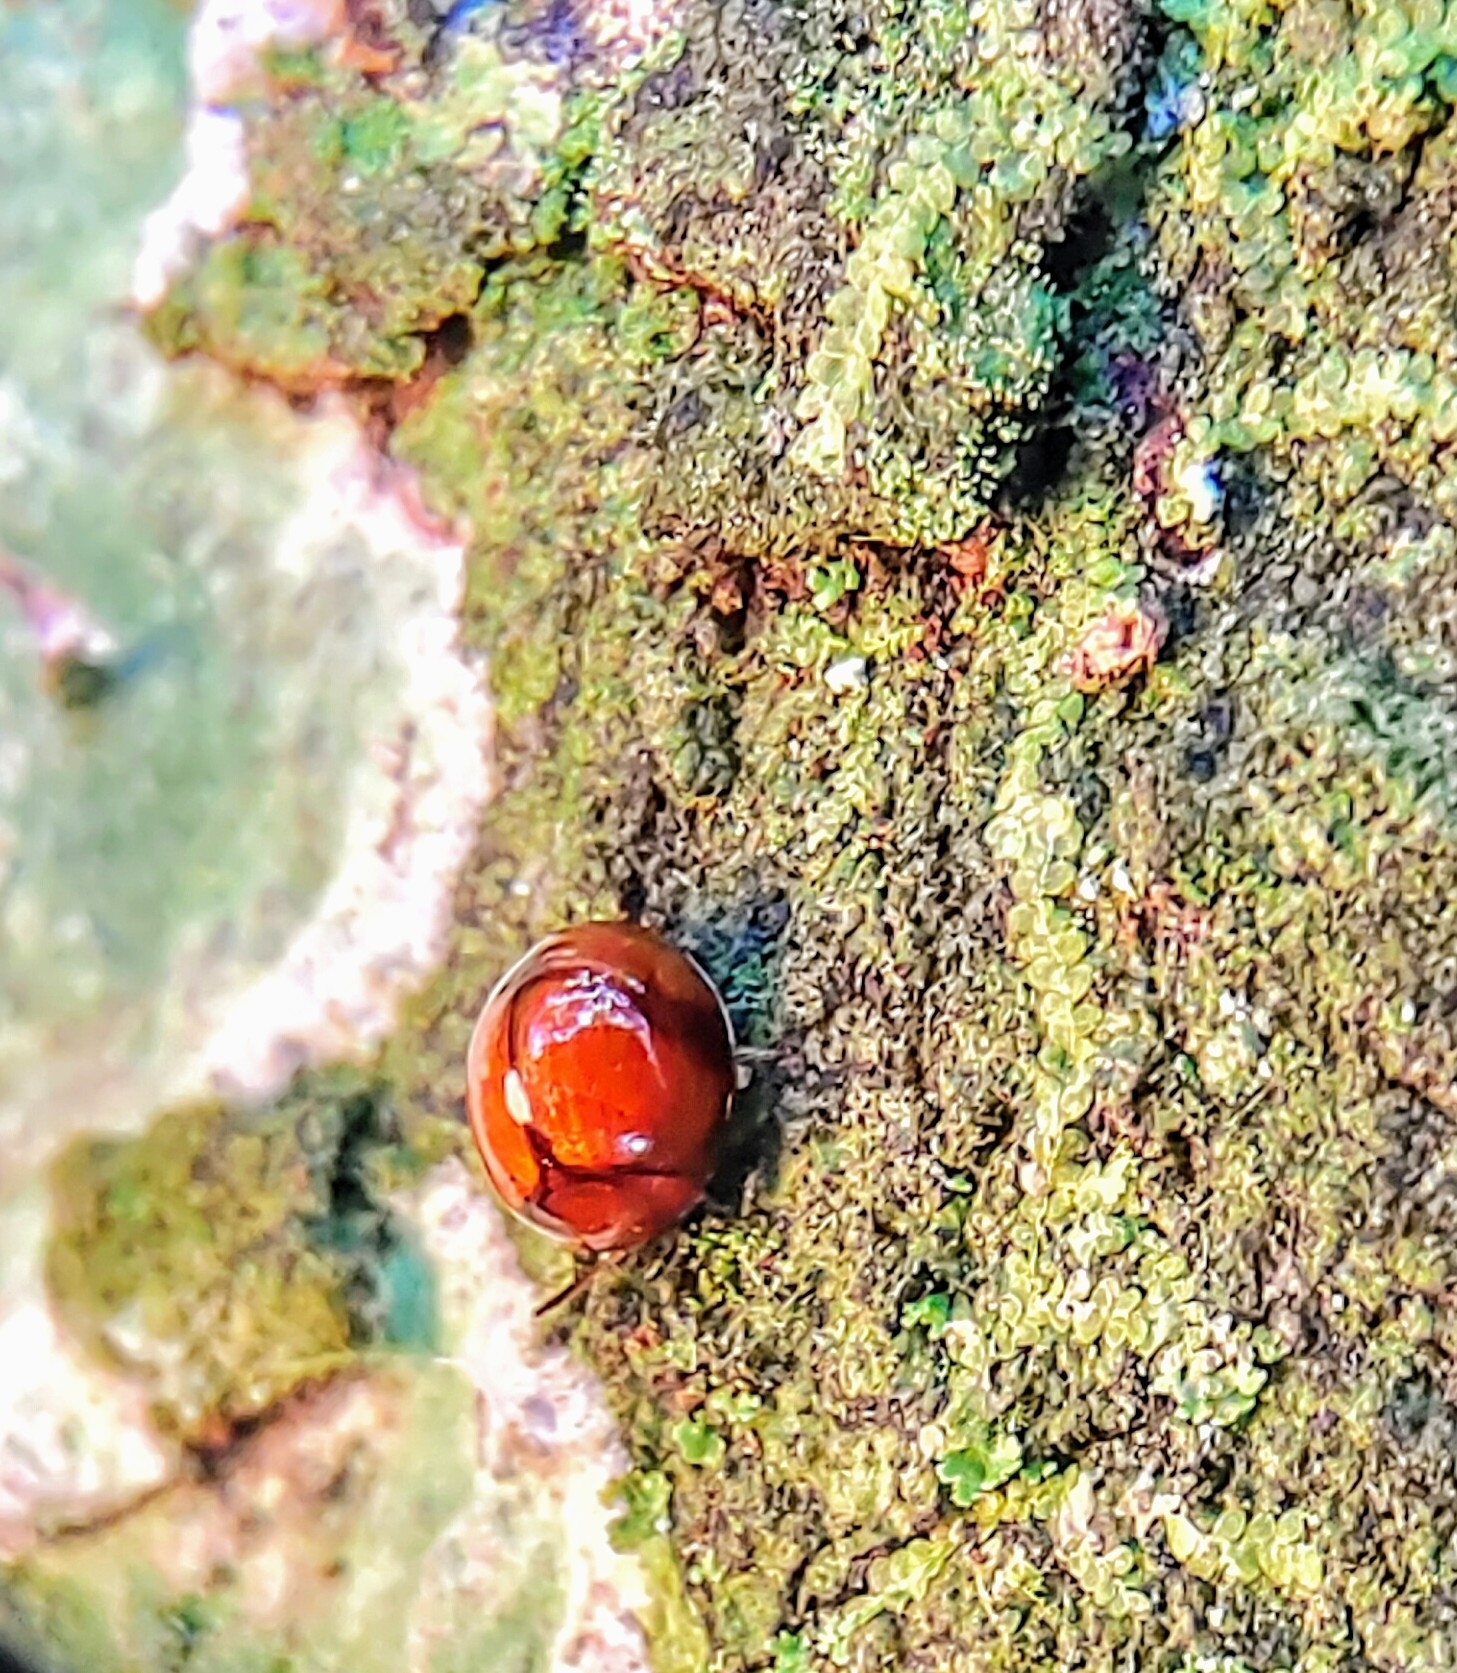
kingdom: Animalia
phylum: Arthropoda
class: Insecta
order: Coleoptera
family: Tenebrionidae
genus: Derispia
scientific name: Derispia
